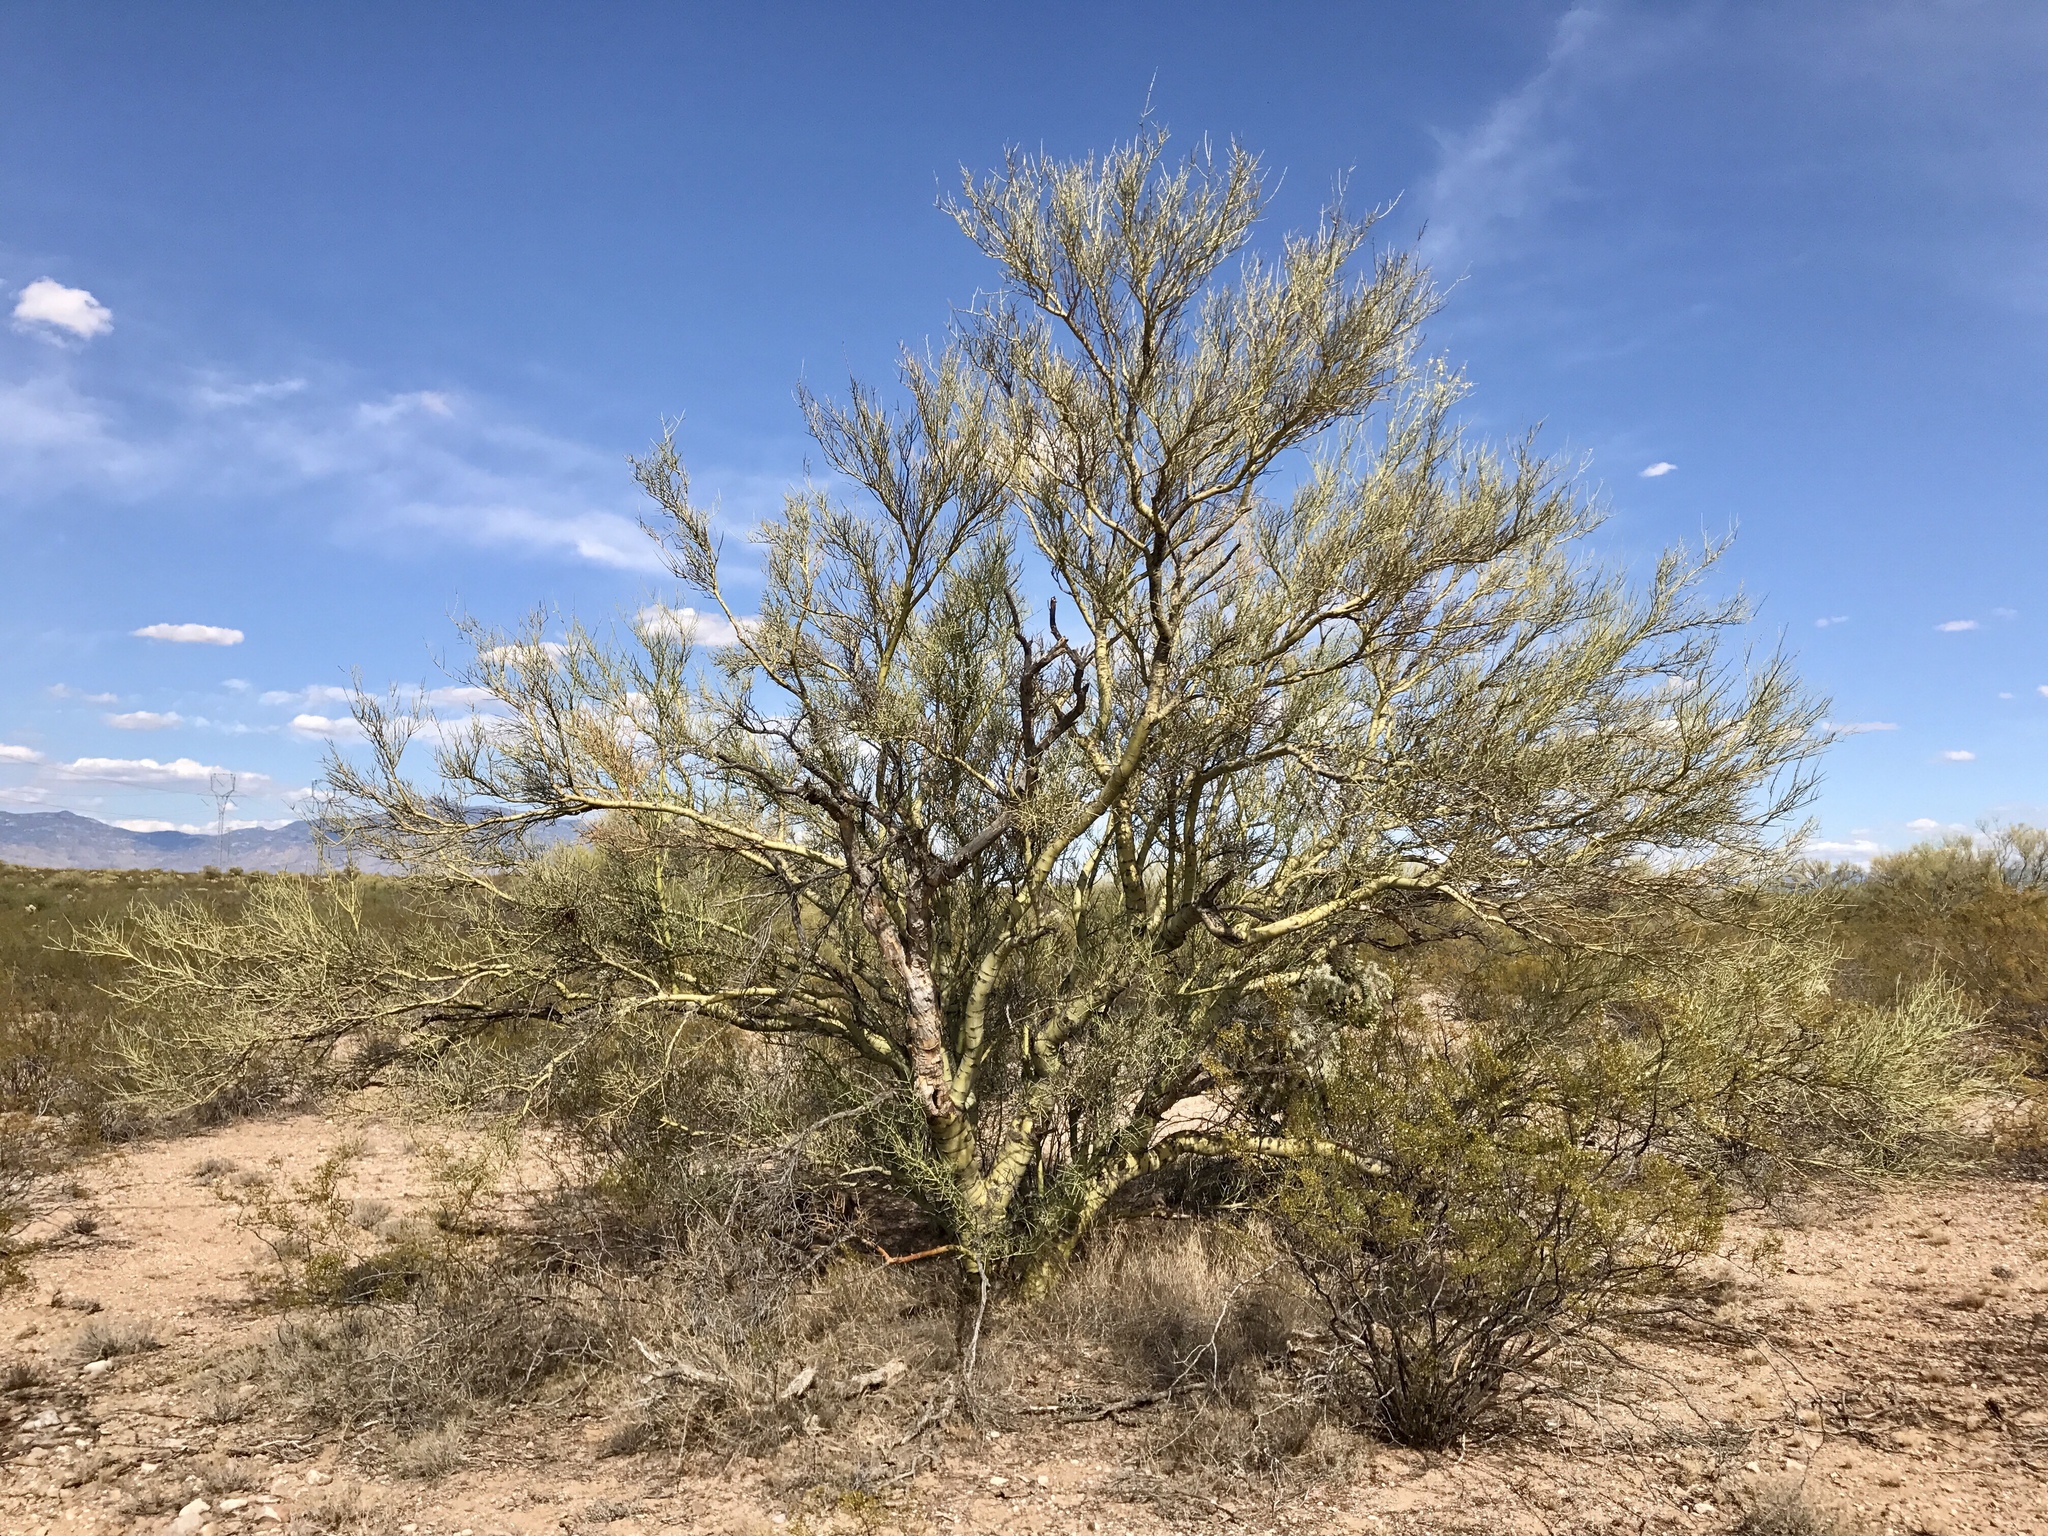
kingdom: Plantae
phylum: Tracheophyta
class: Magnoliopsida
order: Fabales
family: Fabaceae
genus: Parkinsonia
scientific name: Parkinsonia microphylla
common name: Yellow paloverde
